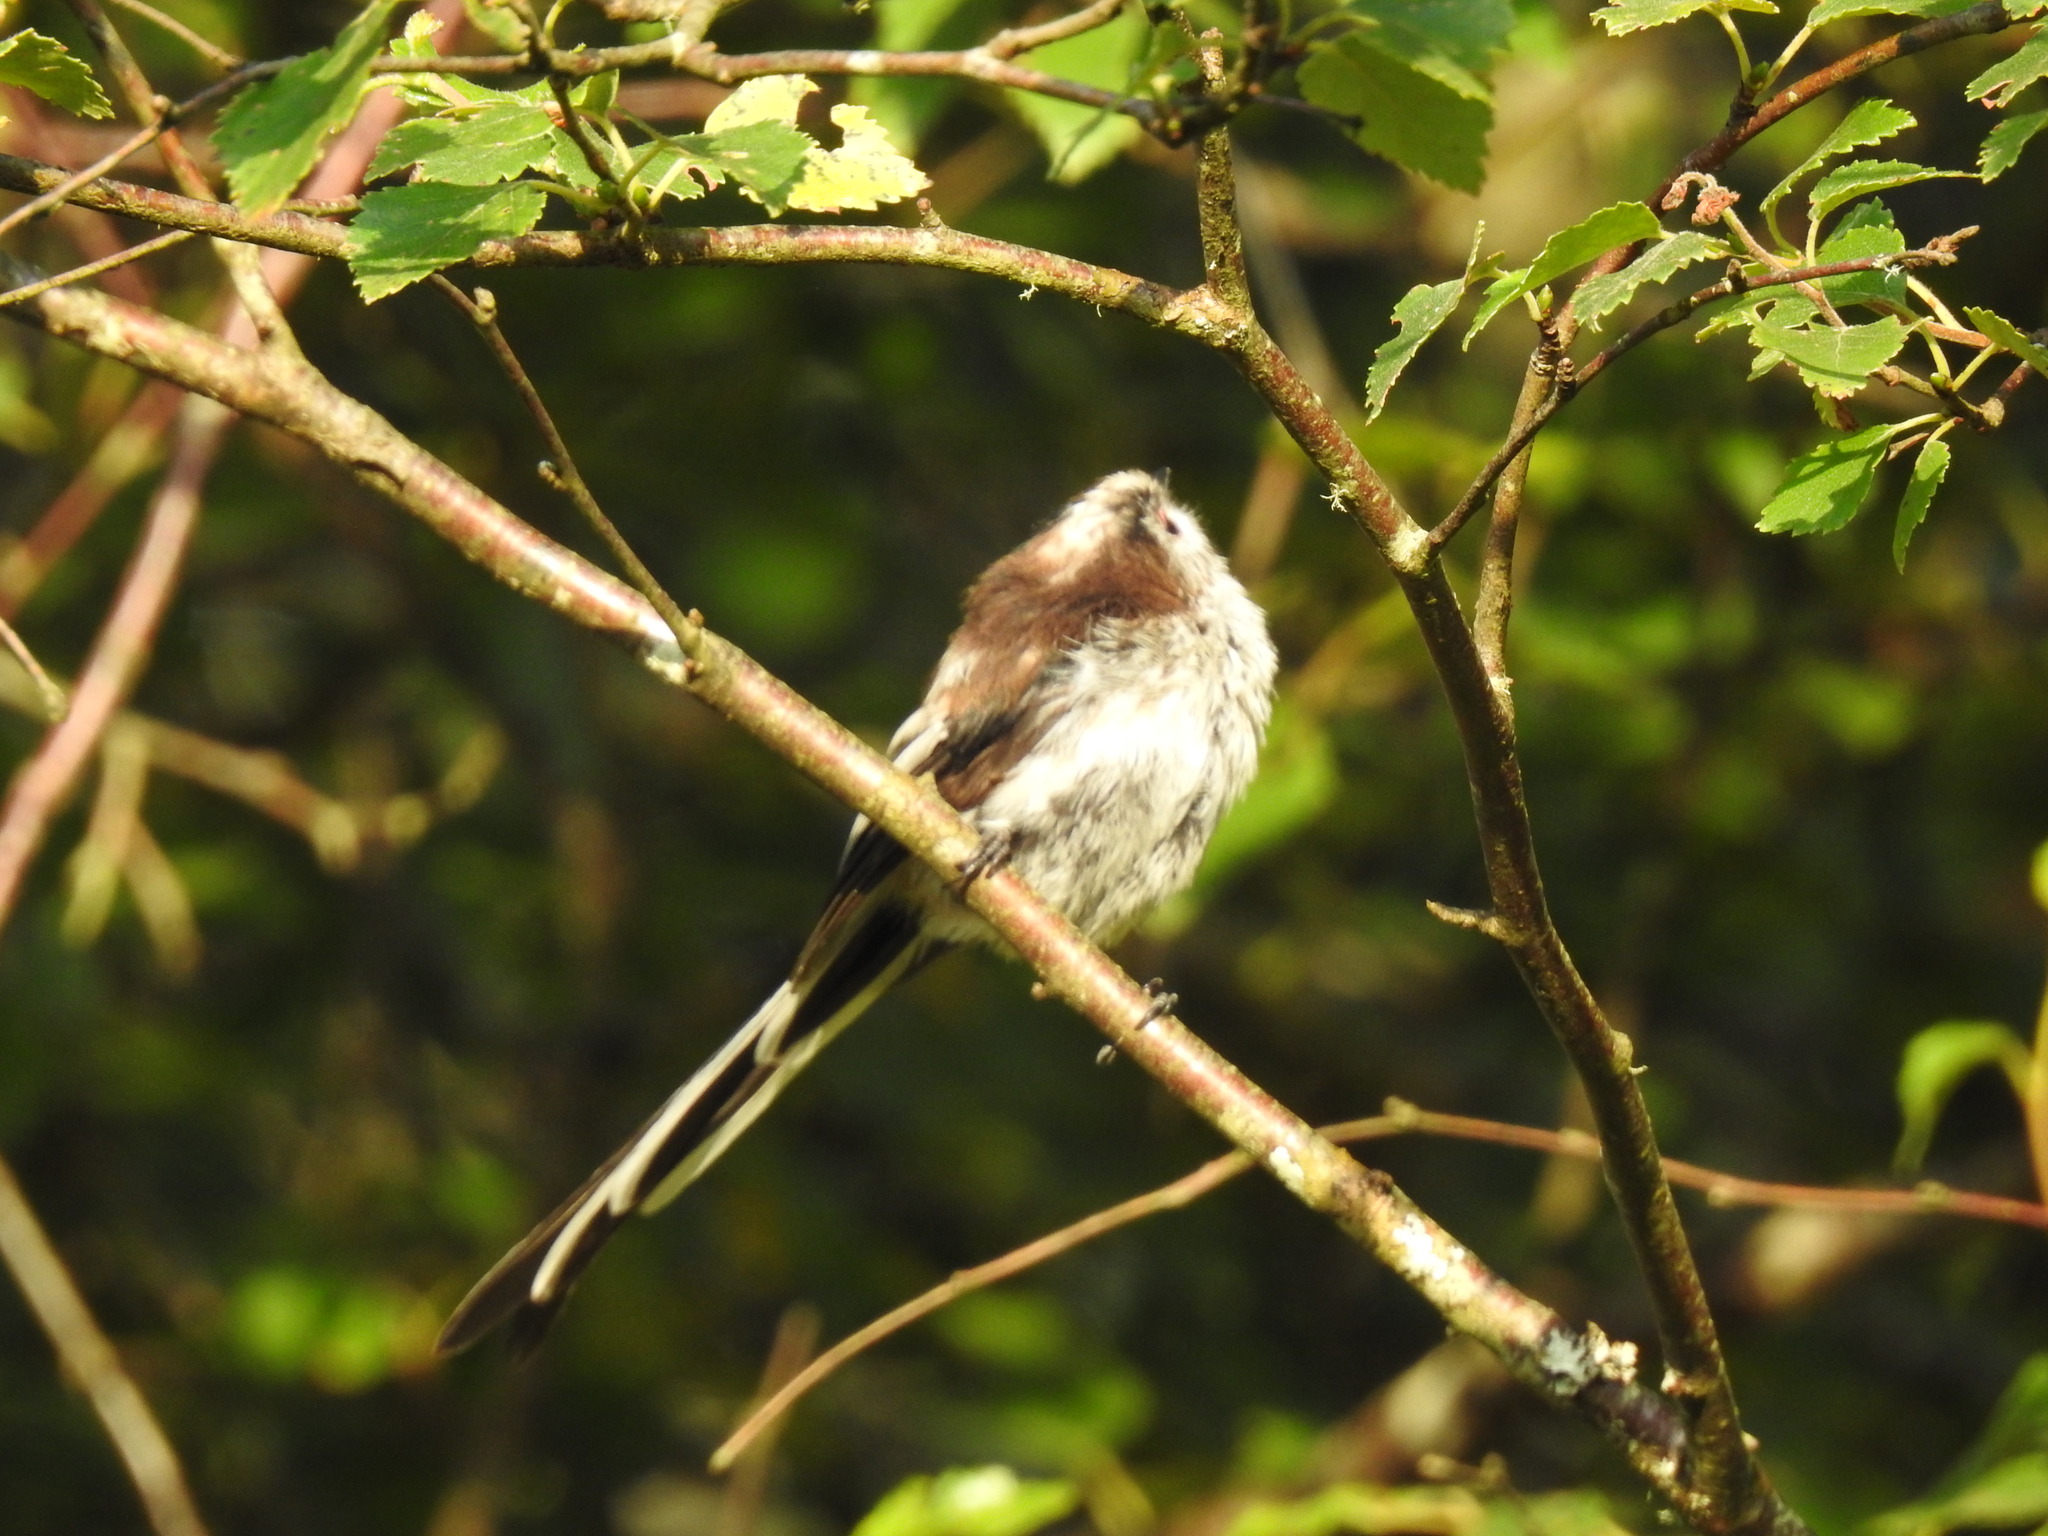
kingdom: Animalia
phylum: Chordata
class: Aves
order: Passeriformes
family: Aegithalidae
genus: Aegithalos
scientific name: Aegithalos caudatus
